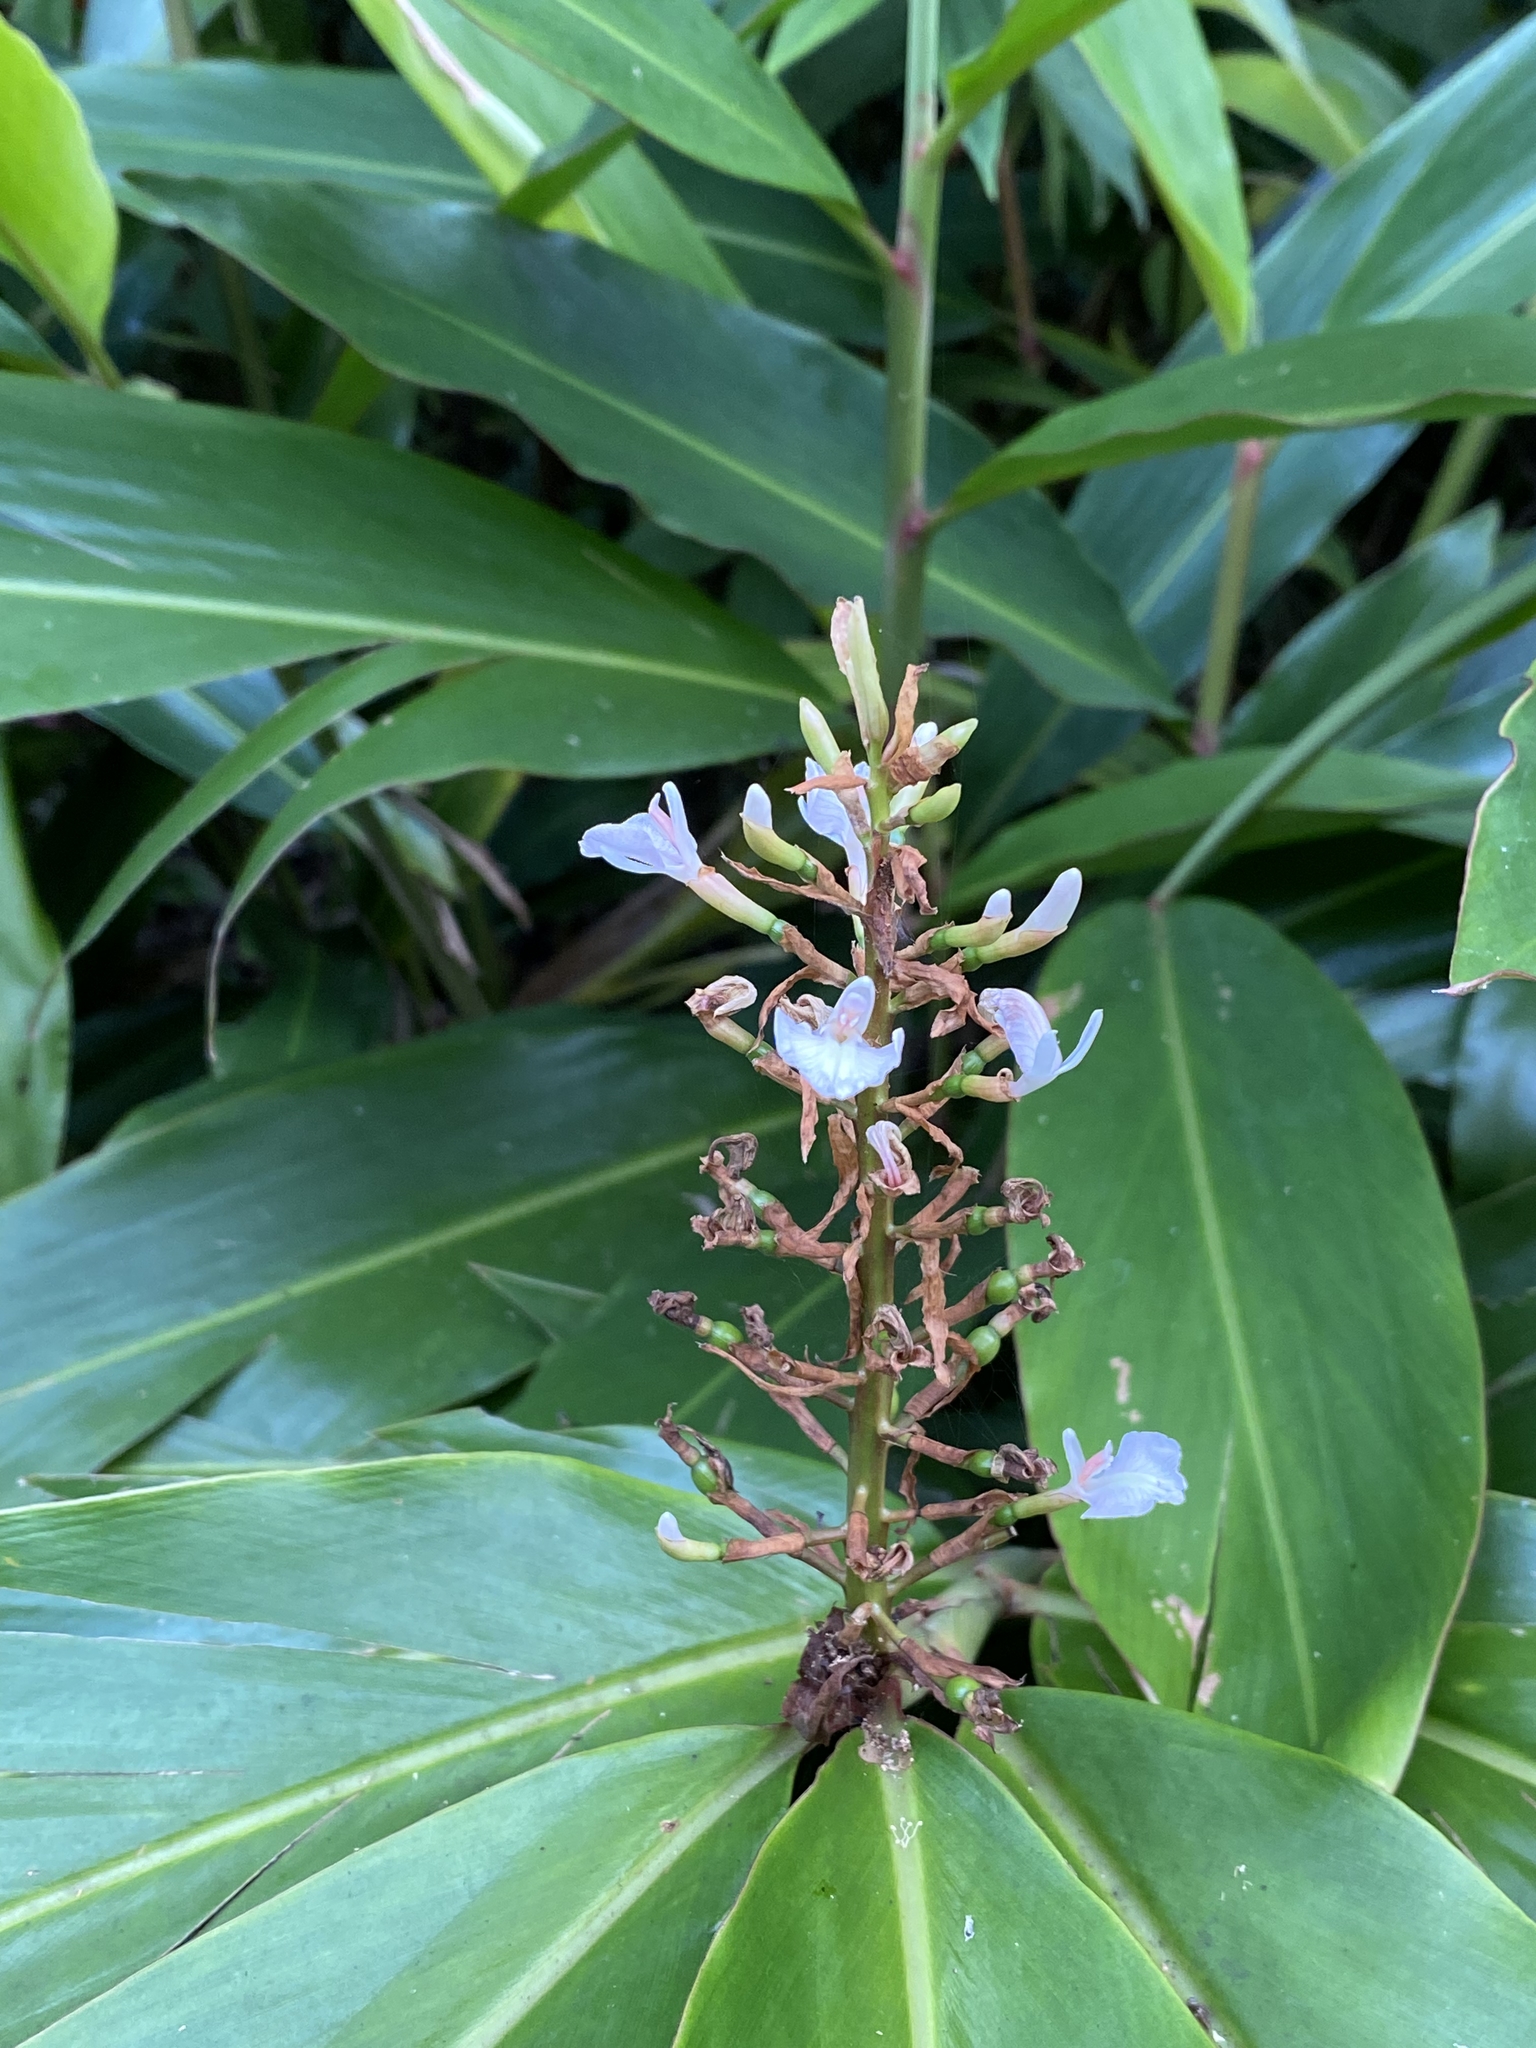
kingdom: Plantae
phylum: Tracheophyta
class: Liliopsida
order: Zingiberales
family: Zingiberaceae
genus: Alpinia
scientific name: Alpinia caerulea
